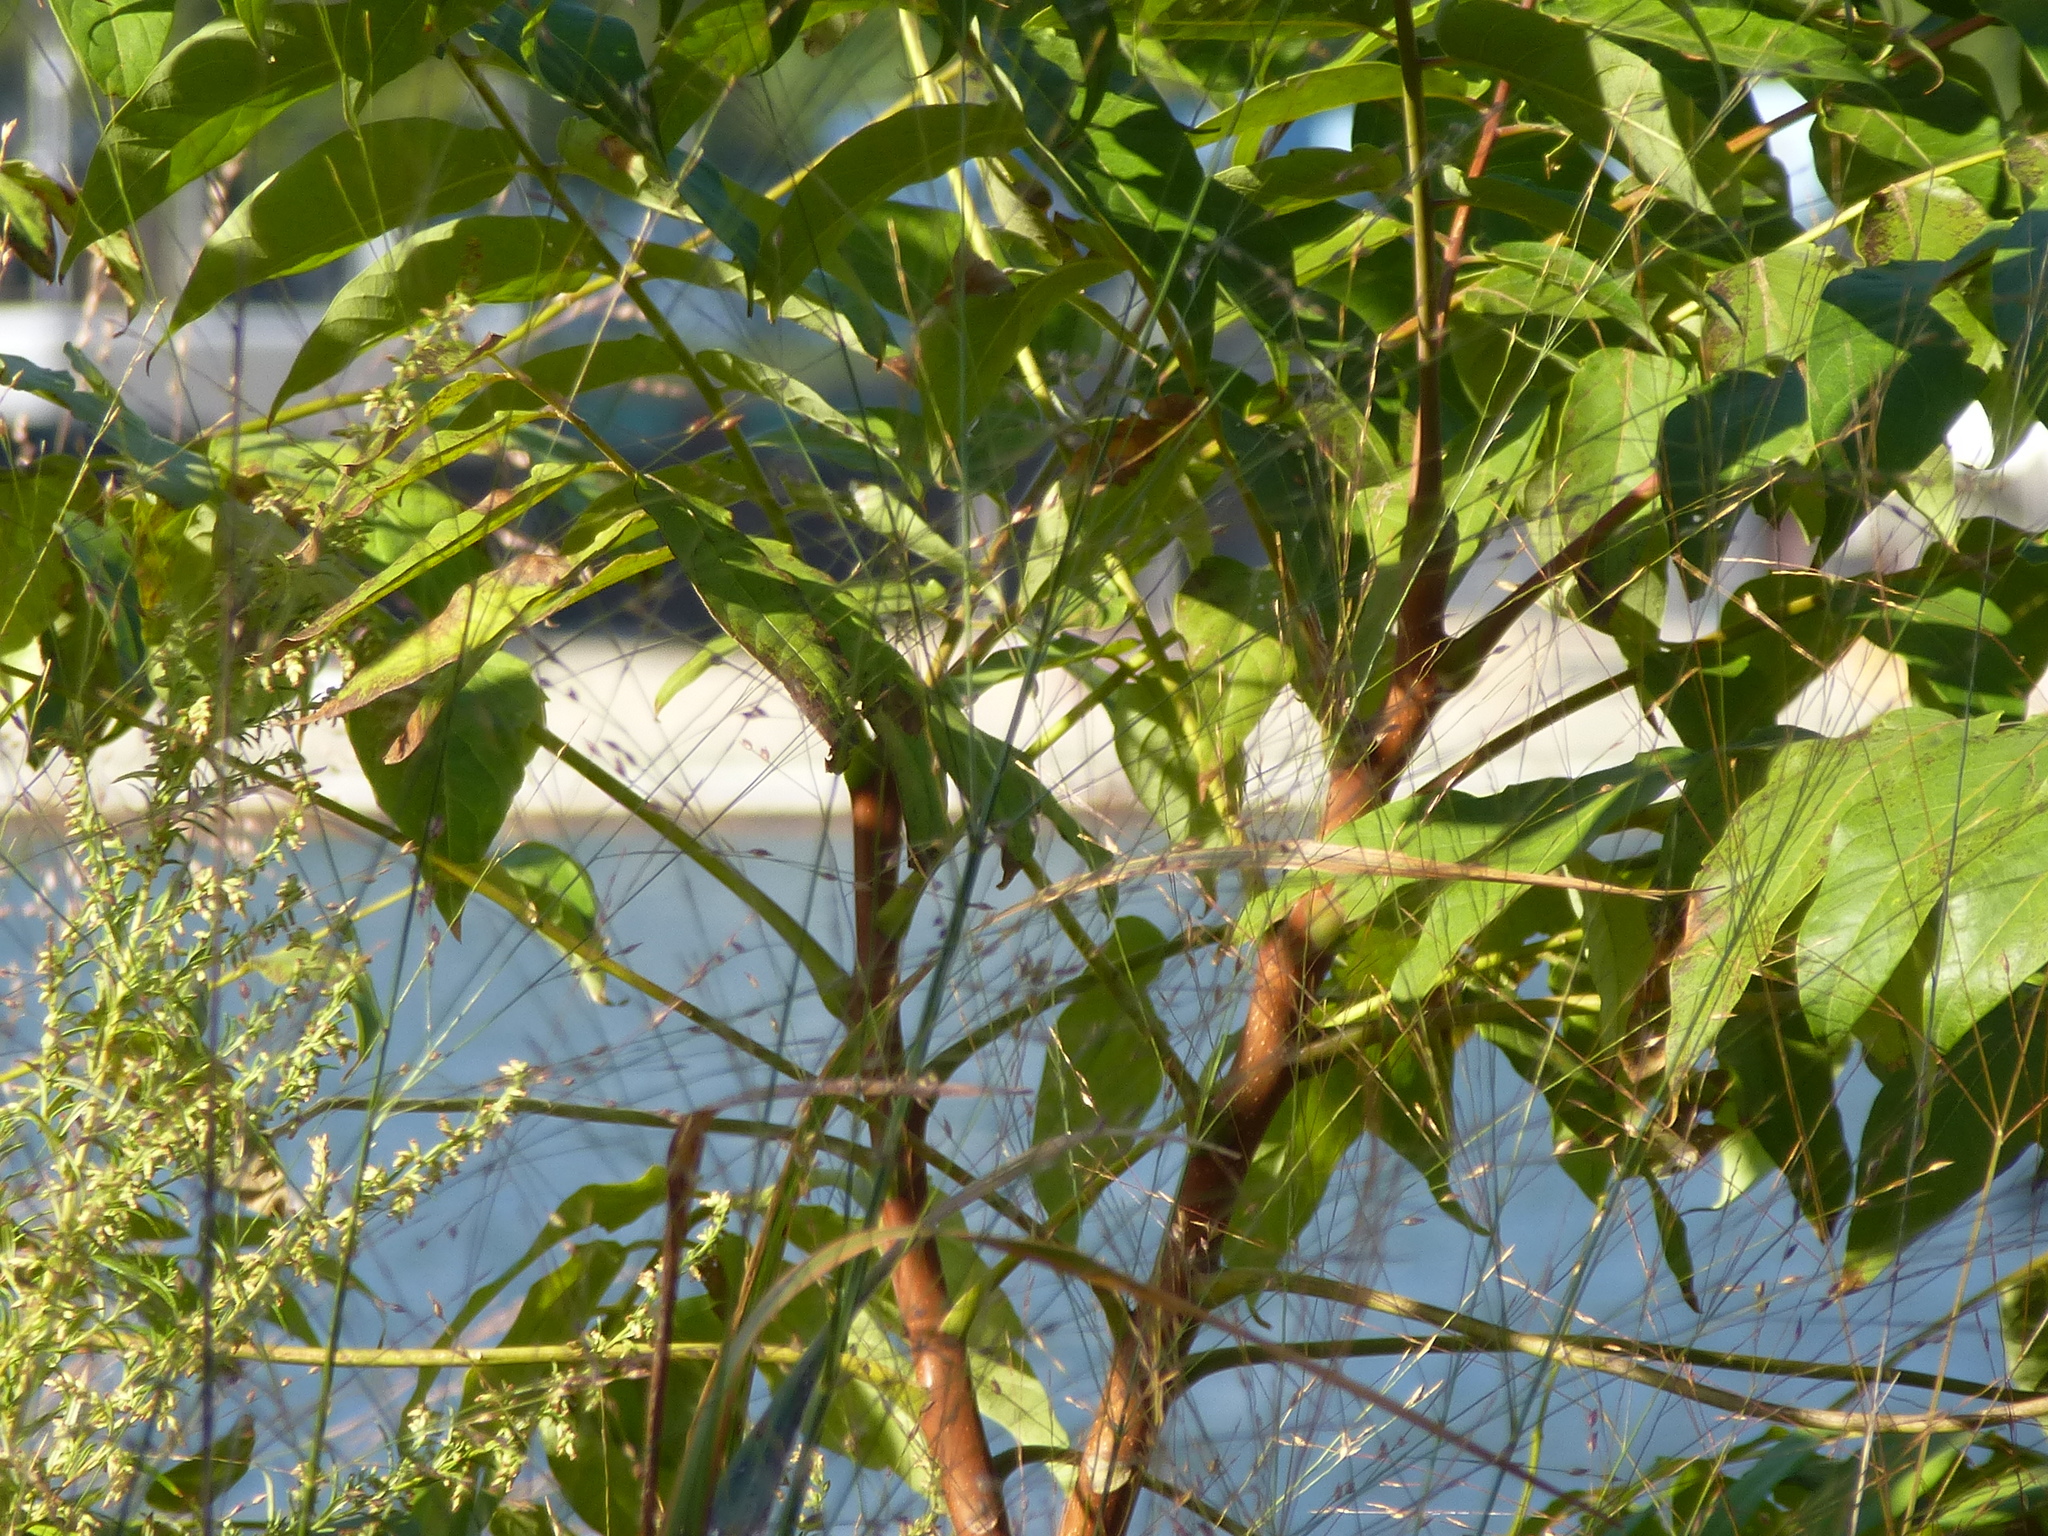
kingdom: Plantae
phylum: Tracheophyta
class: Magnoliopsida
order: Sapindales
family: Simaroubaceae
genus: Ailanthus
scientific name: Ailanthus altissima
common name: Tree-of-heaven
